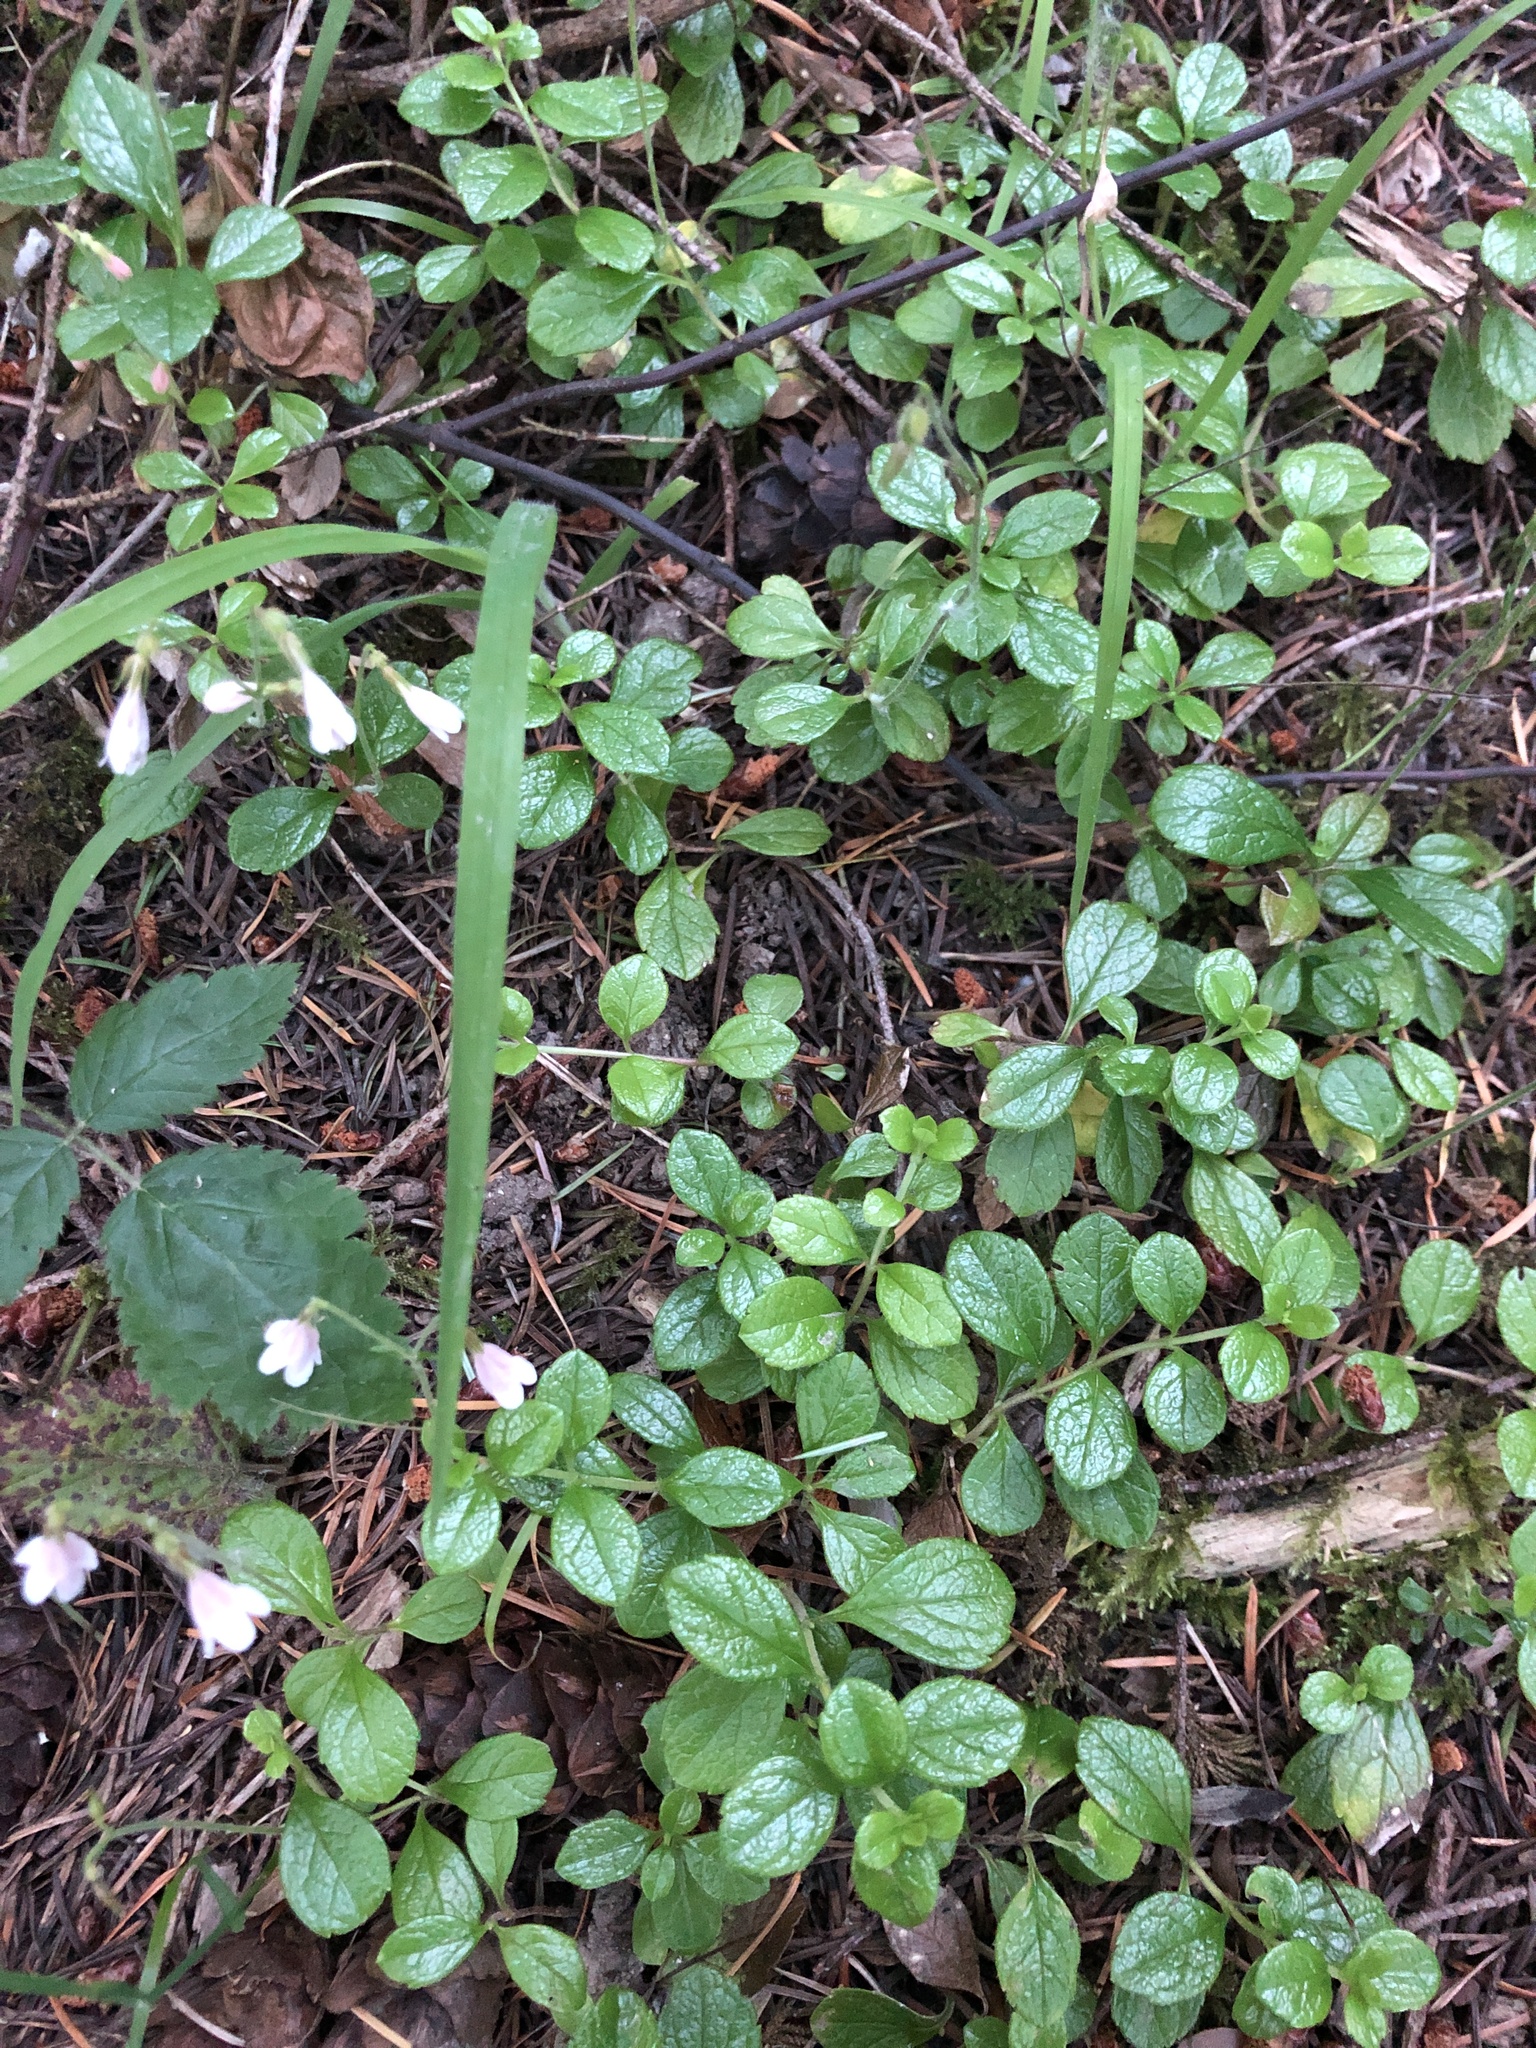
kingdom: Plantae
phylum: Tracheophyta
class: Magnoliopsida
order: Dipsacales
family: Caprifoliaceae
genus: Linnaea
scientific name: Linnaea borealis
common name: Twinflower
